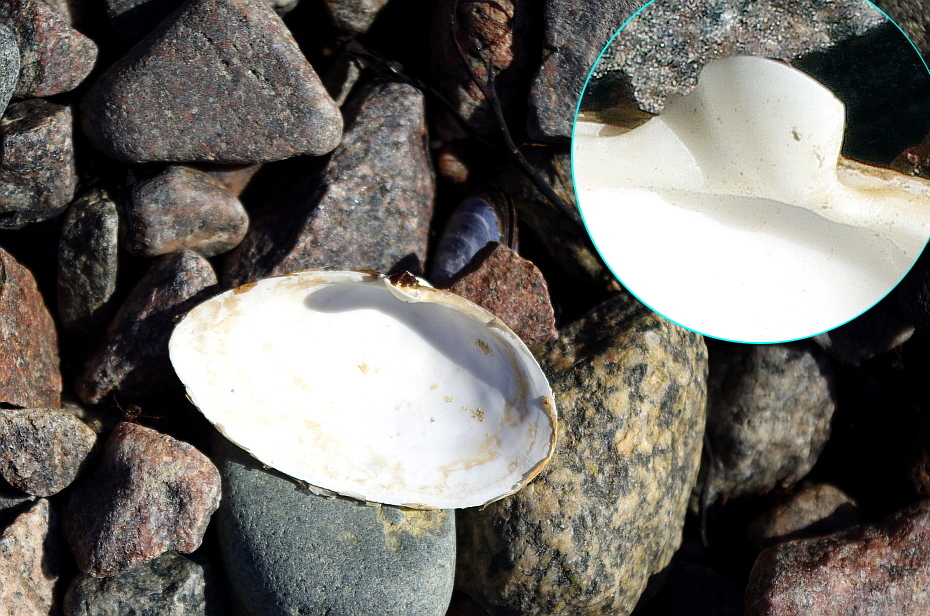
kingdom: Animalia
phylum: Mollusca
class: Bivalvia
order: Myida
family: Myidae
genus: Mya
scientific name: Mya arenaria
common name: Soft-shelled clam
